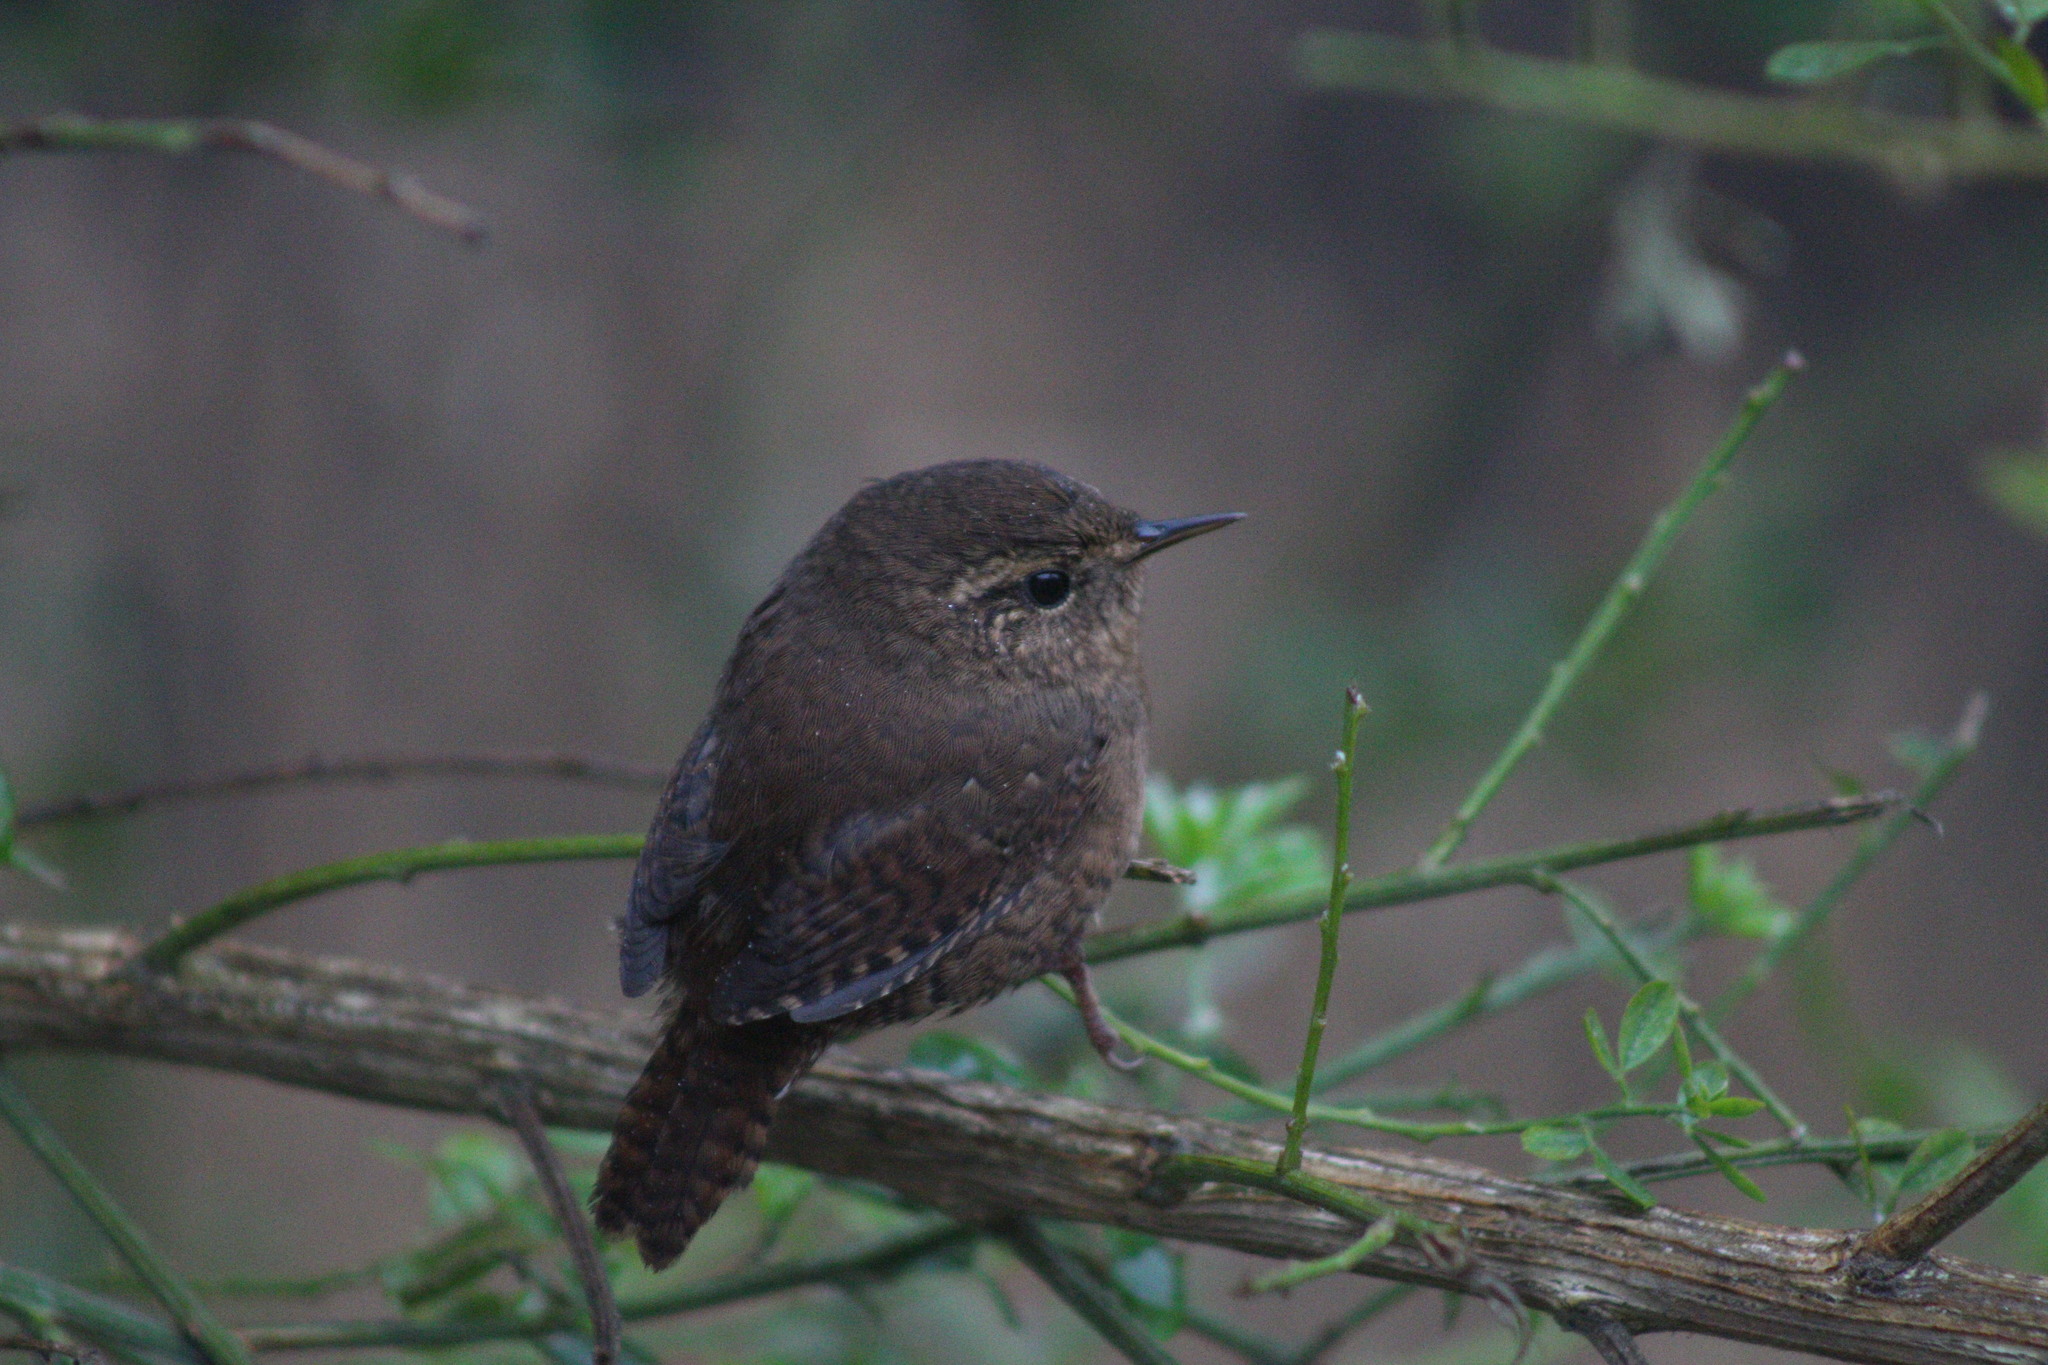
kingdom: Animalia
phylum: Chordata
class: Aves
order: Passeriformes
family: Troglodytidae
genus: Troglodytes
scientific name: Troglodytes pacificus
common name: Pacific wren
